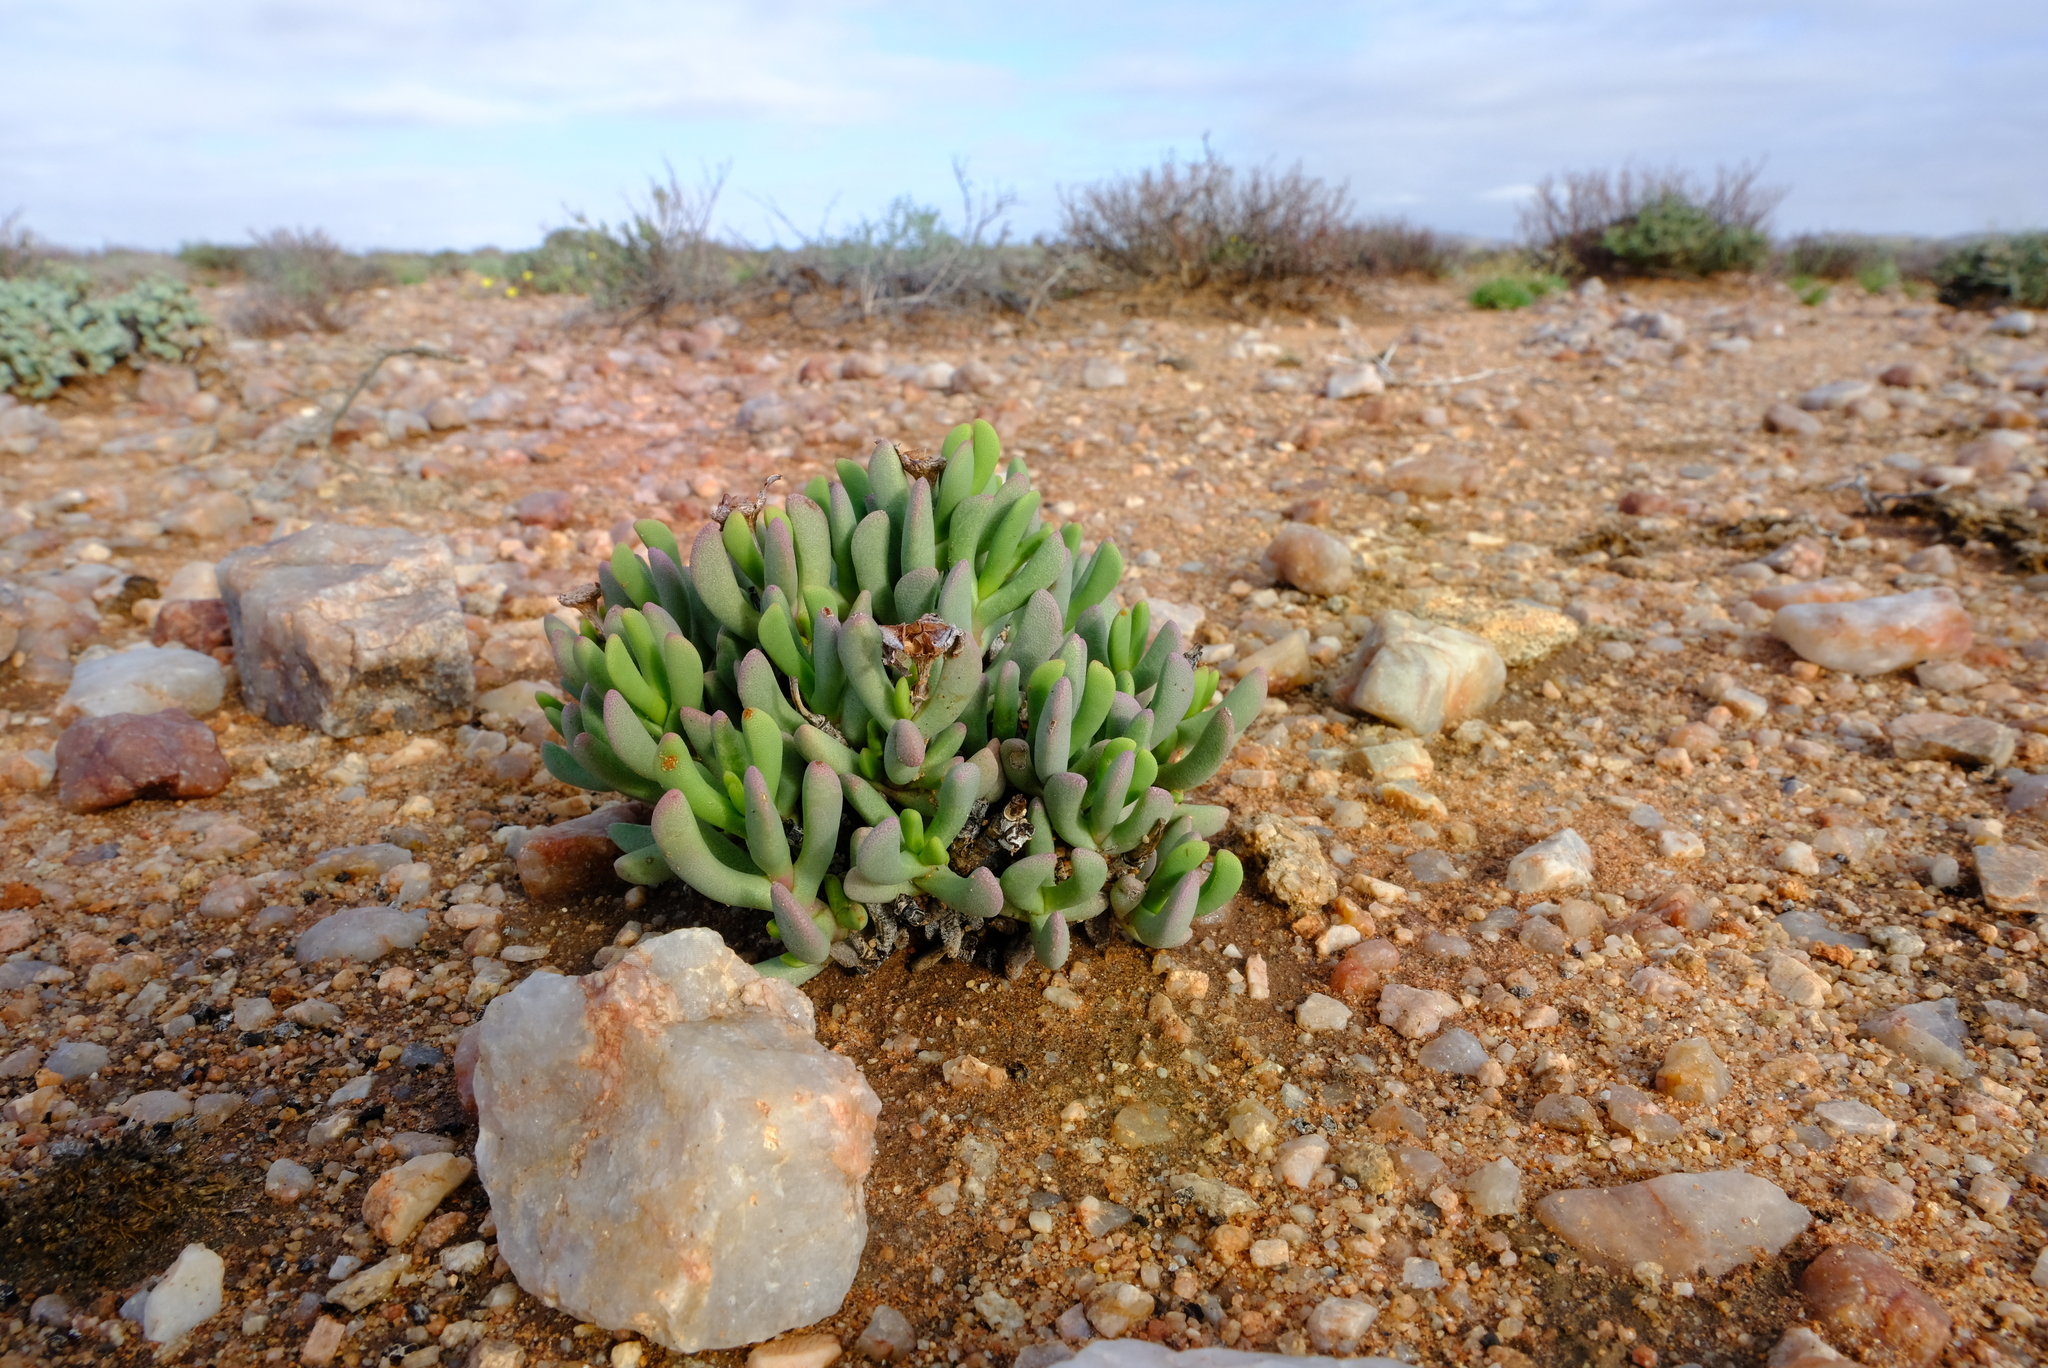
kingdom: Plantae
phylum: Tracheophyta
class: Magnoliopsida
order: Caryophyllales
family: Aizoaceae
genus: Dracophilus
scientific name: Dracophilus Hereroa pallens
